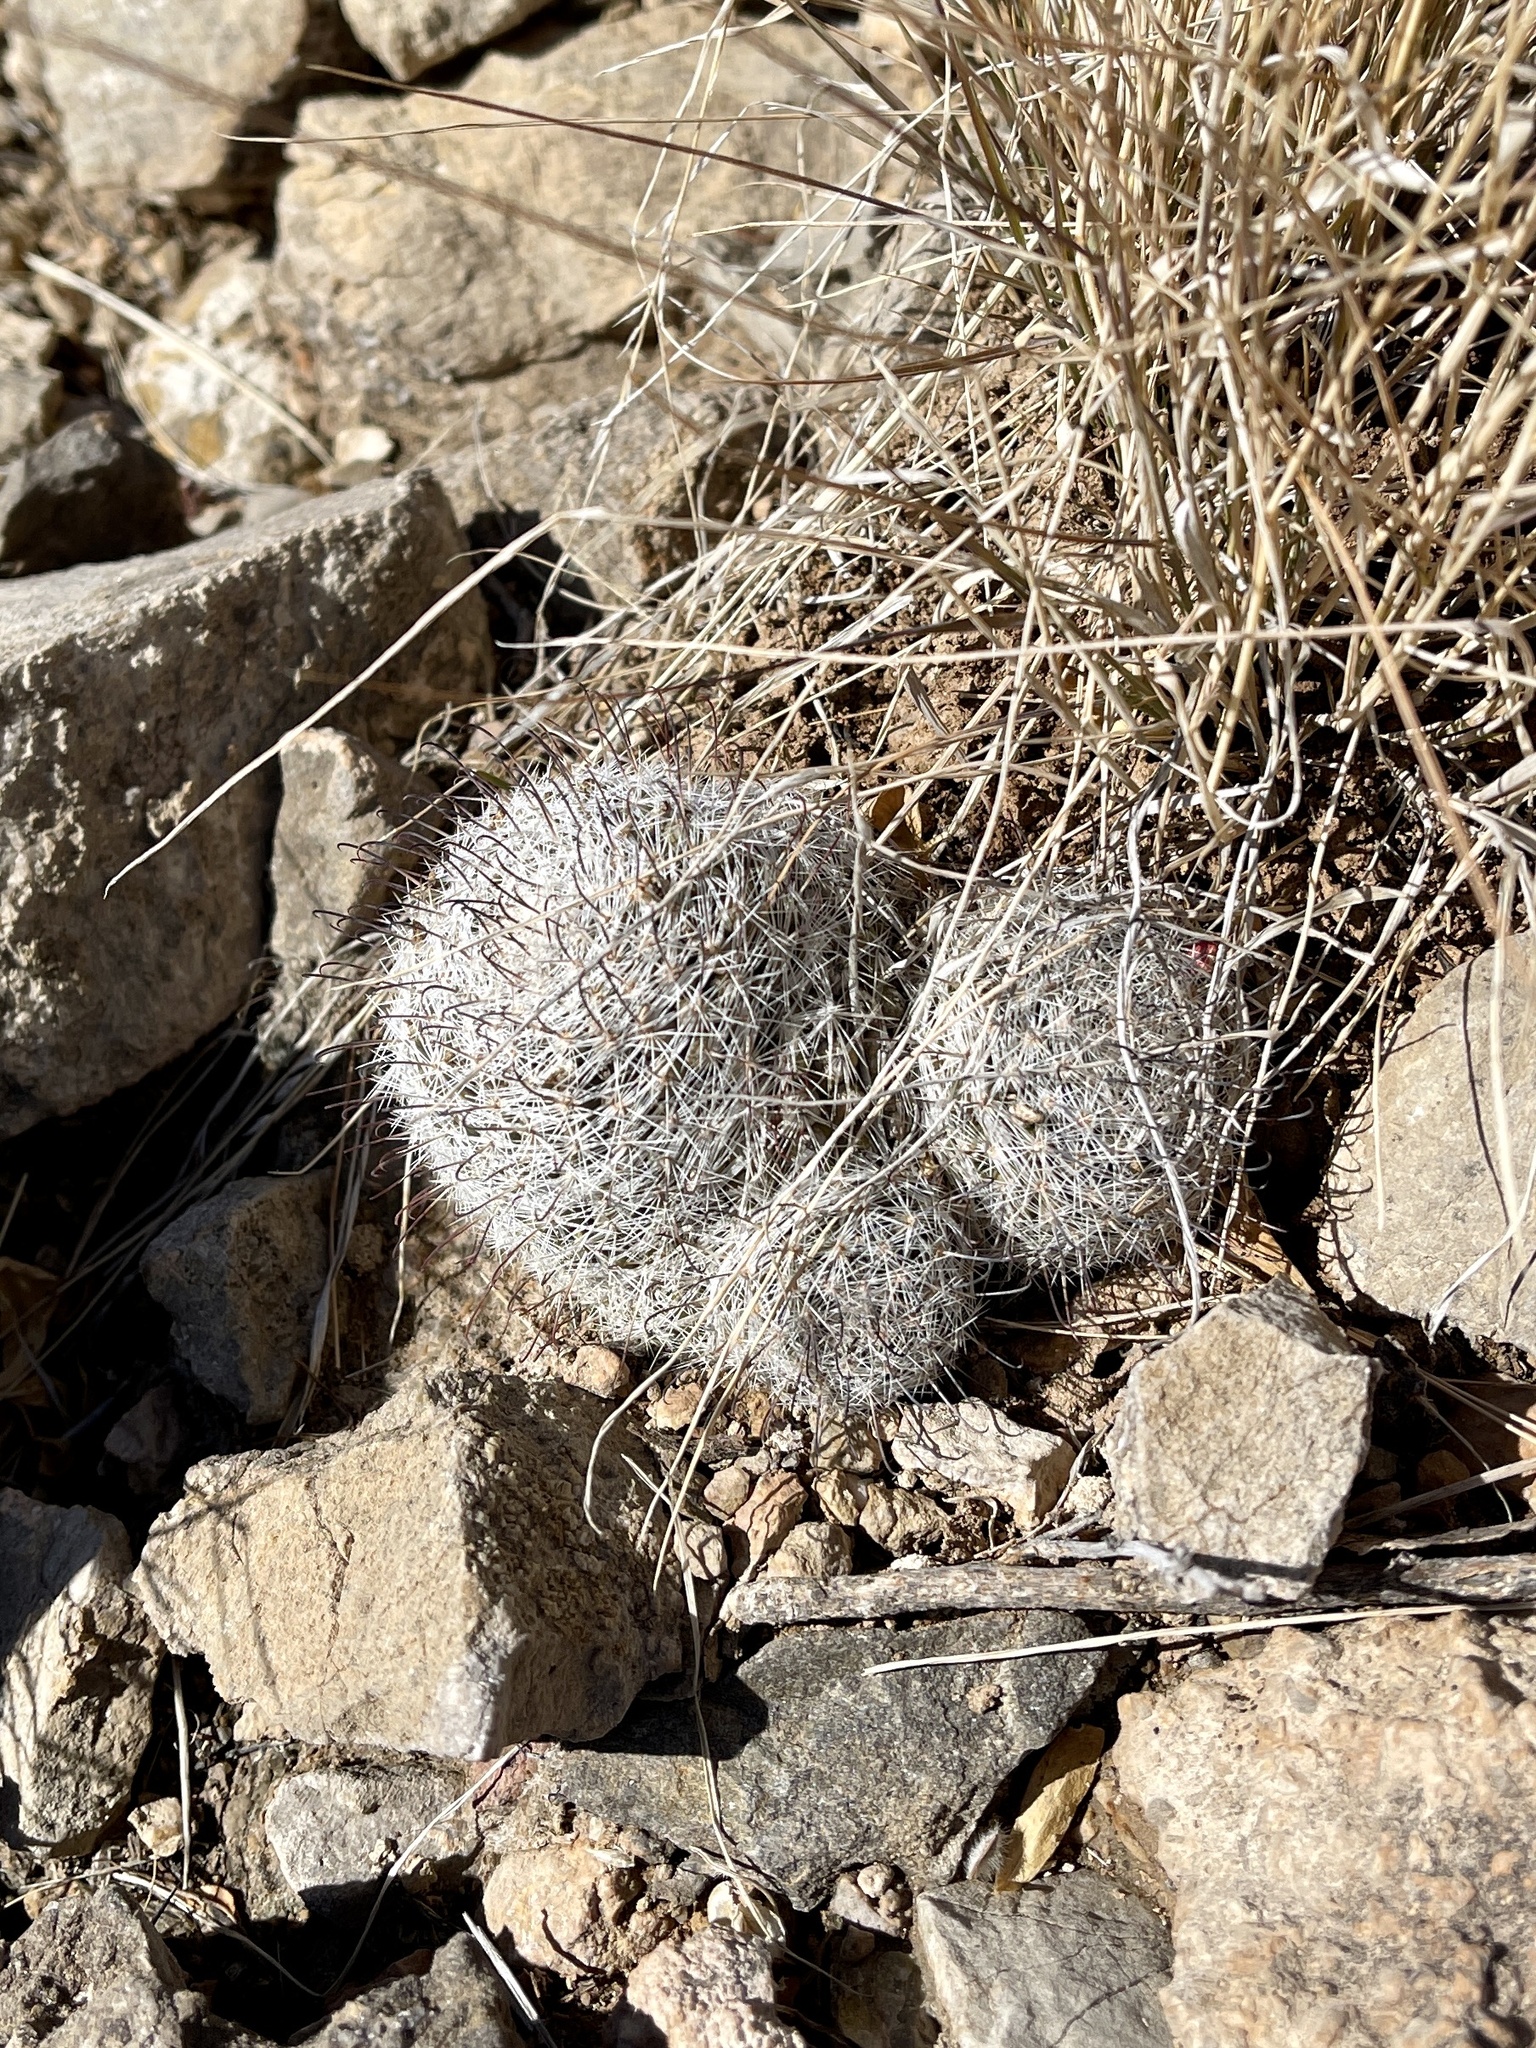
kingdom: Plantae
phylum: Tracheophyta
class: Magnoliopsida
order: Caryophyllales
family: Cactaceae
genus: Cochemiea
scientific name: Cochemiea grahamii
